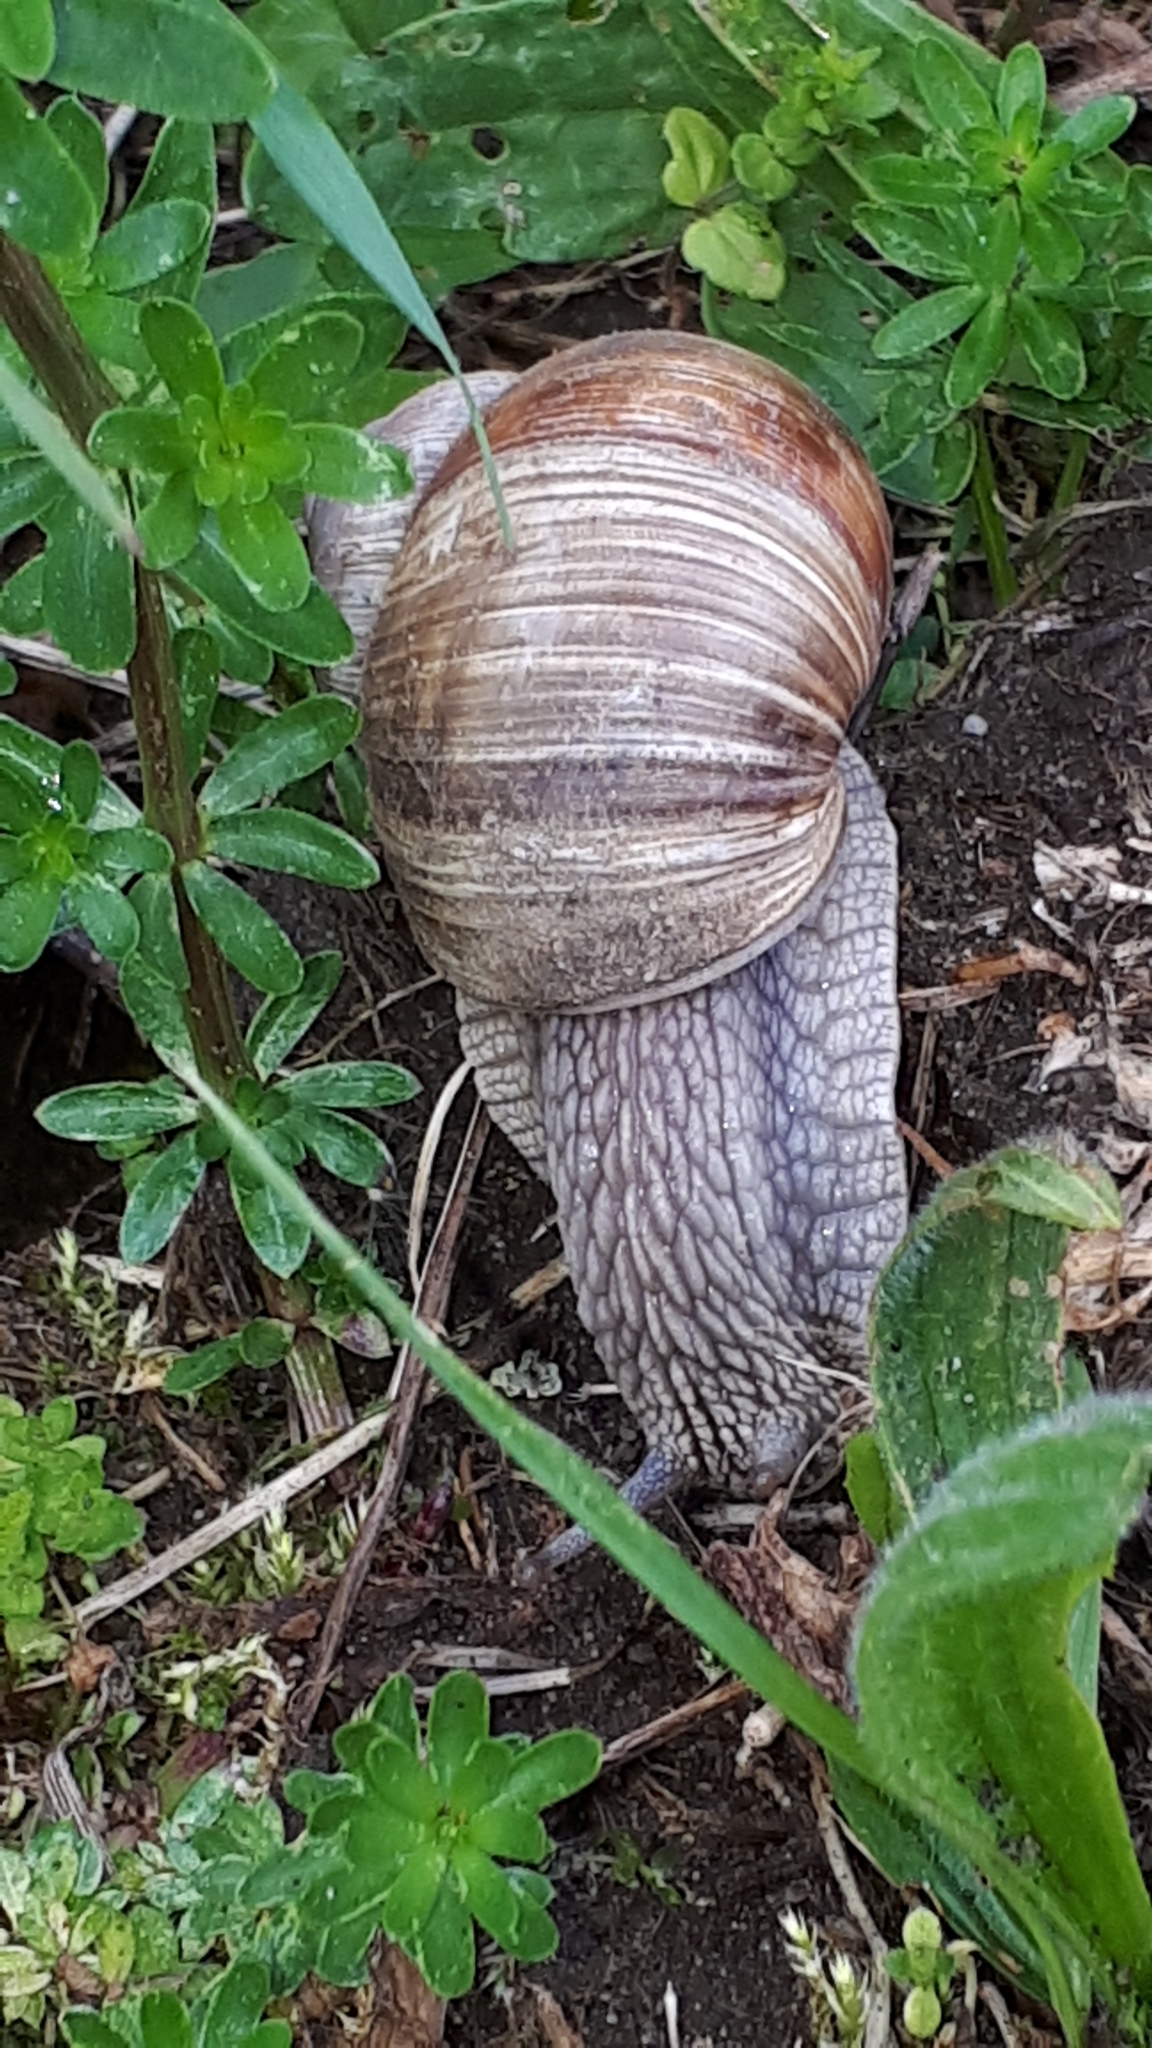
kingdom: Animalia
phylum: Mollusca
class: Gastropoda
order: Stylommatophora
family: Helicidae
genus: Helix
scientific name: Helix pomatia
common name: Roman snail
